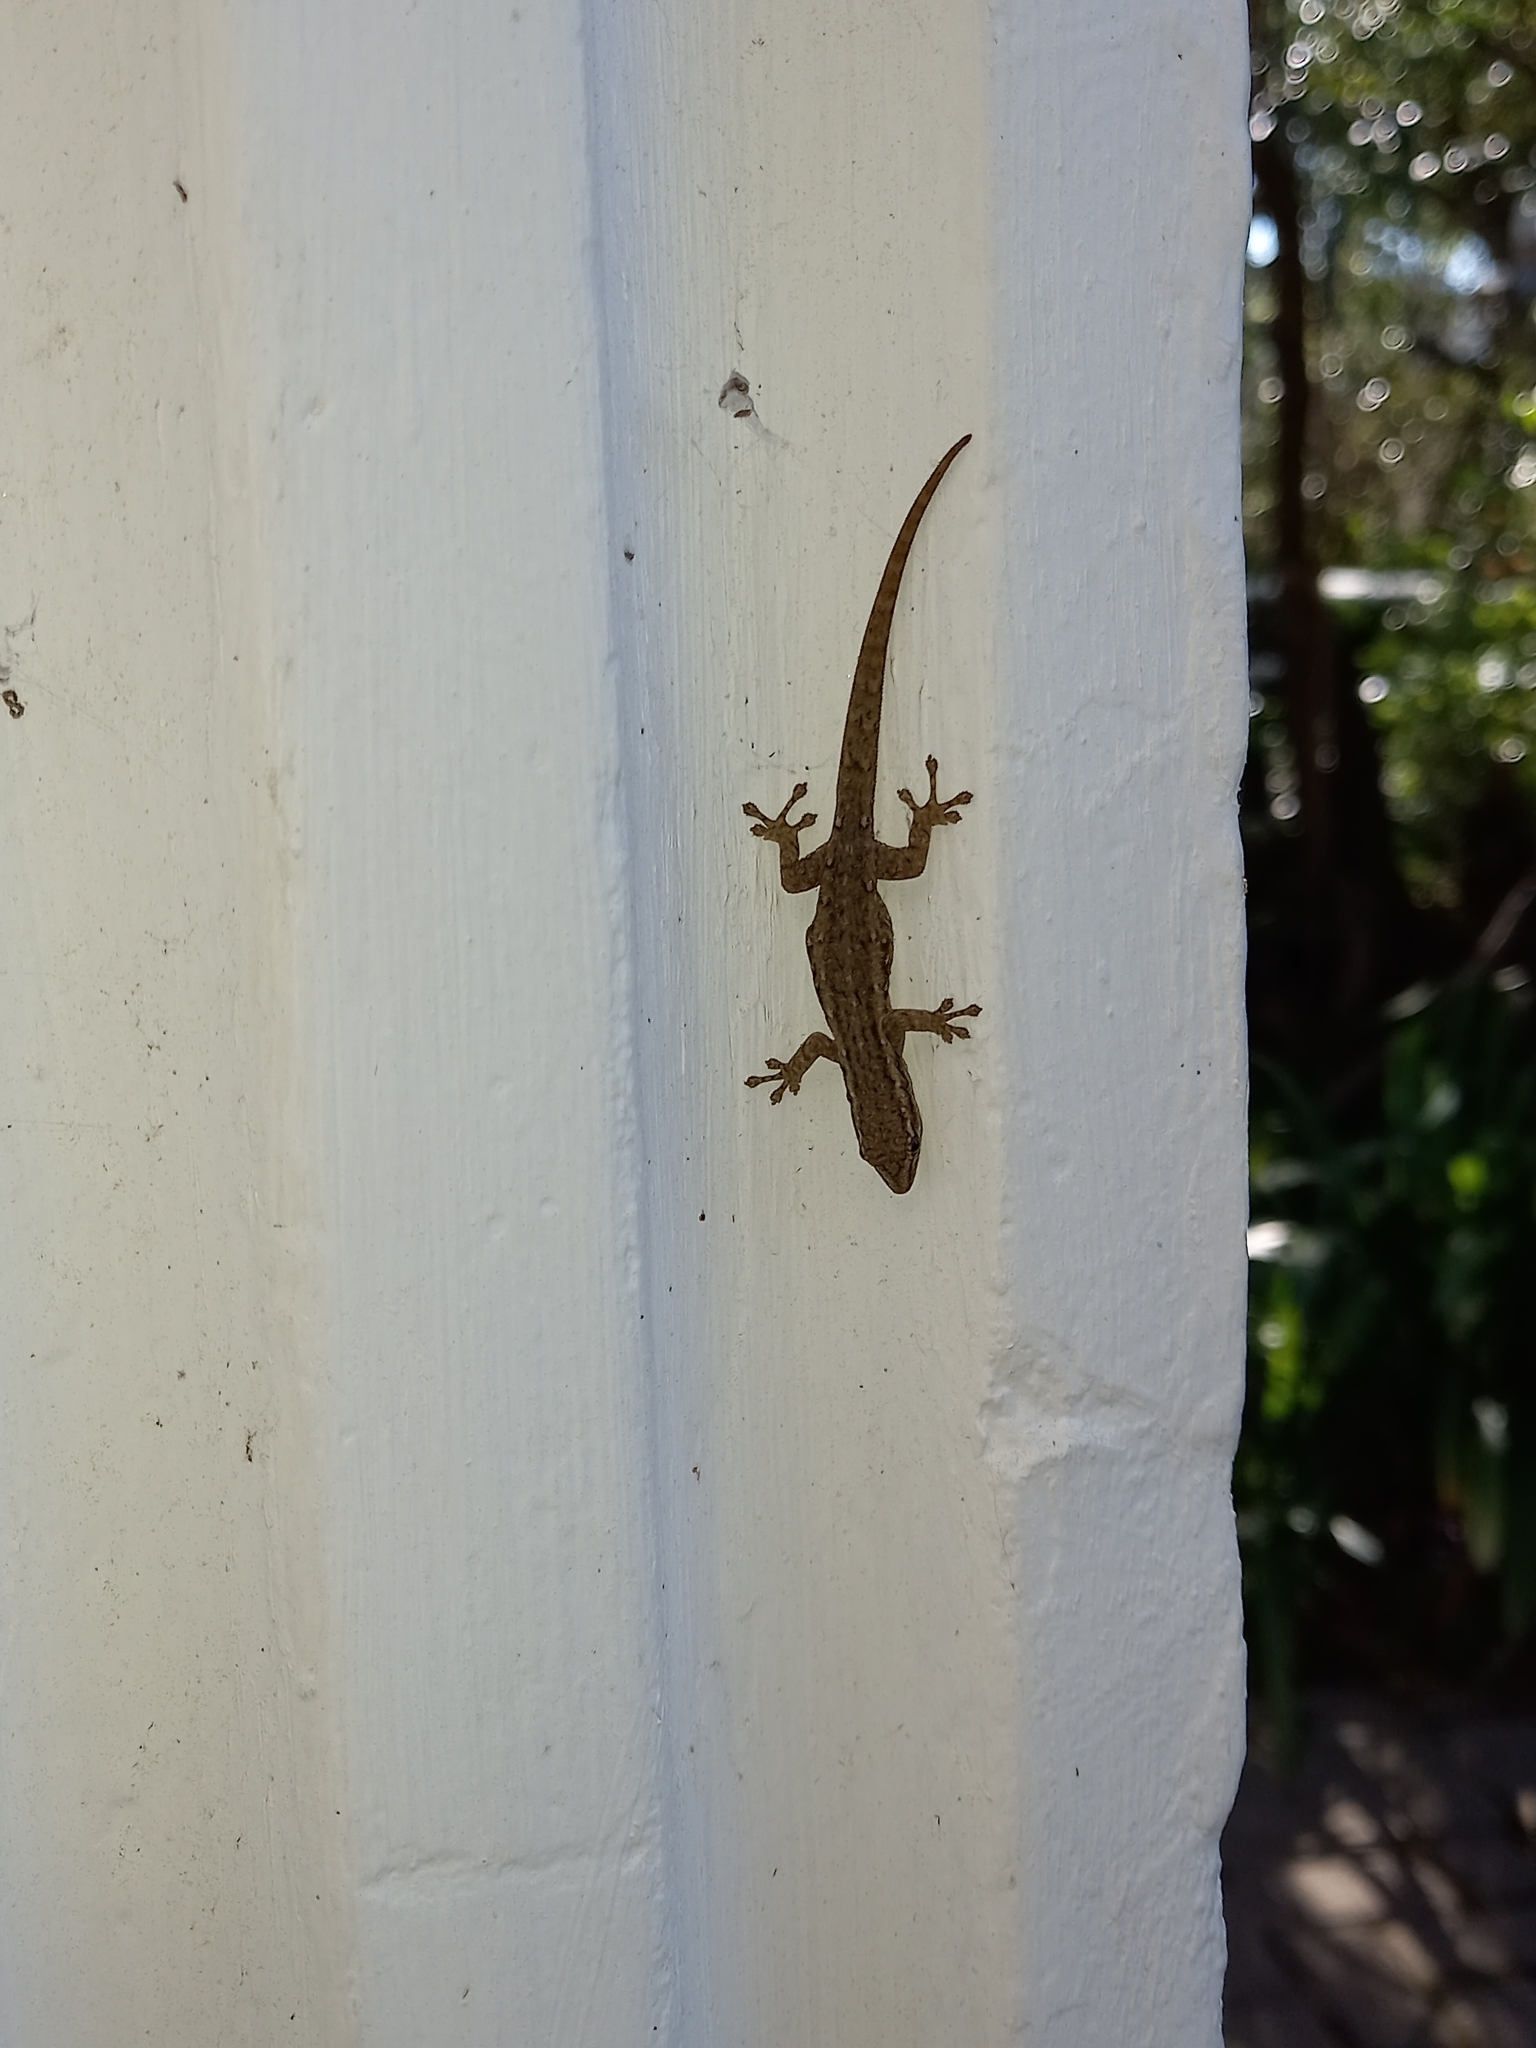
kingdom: Animalia
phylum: Chordata
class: Squamata
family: Gekkonidae
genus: Lygodactylus
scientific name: Lygodactylus capensis
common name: Cape dwarf gecko
